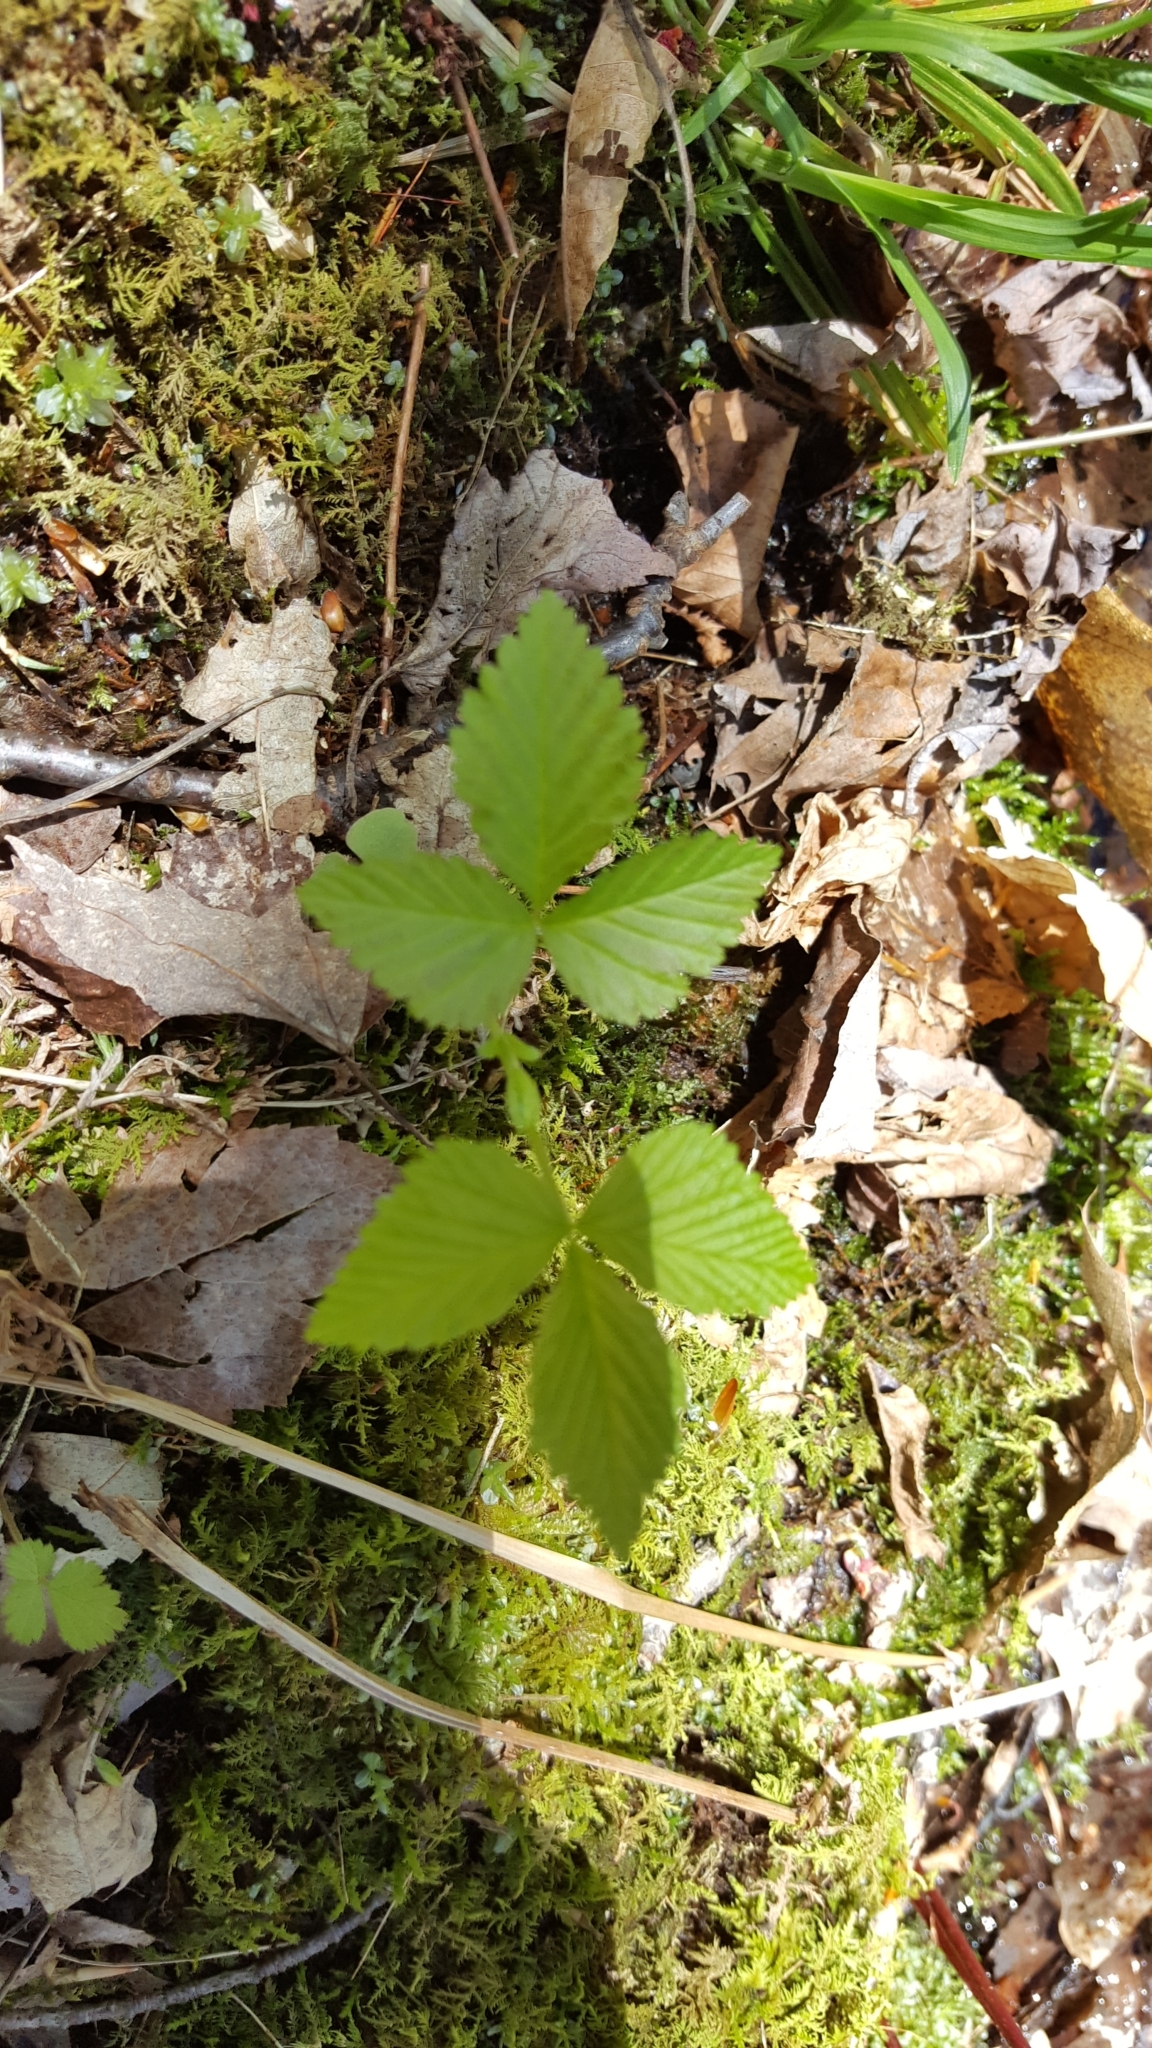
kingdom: Plantae
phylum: Tracheophyta
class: Magnoliopsida
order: Rosales
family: Rosaceae
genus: Rubus
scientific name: Rubus pubescens
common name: Dwarf raspberry
